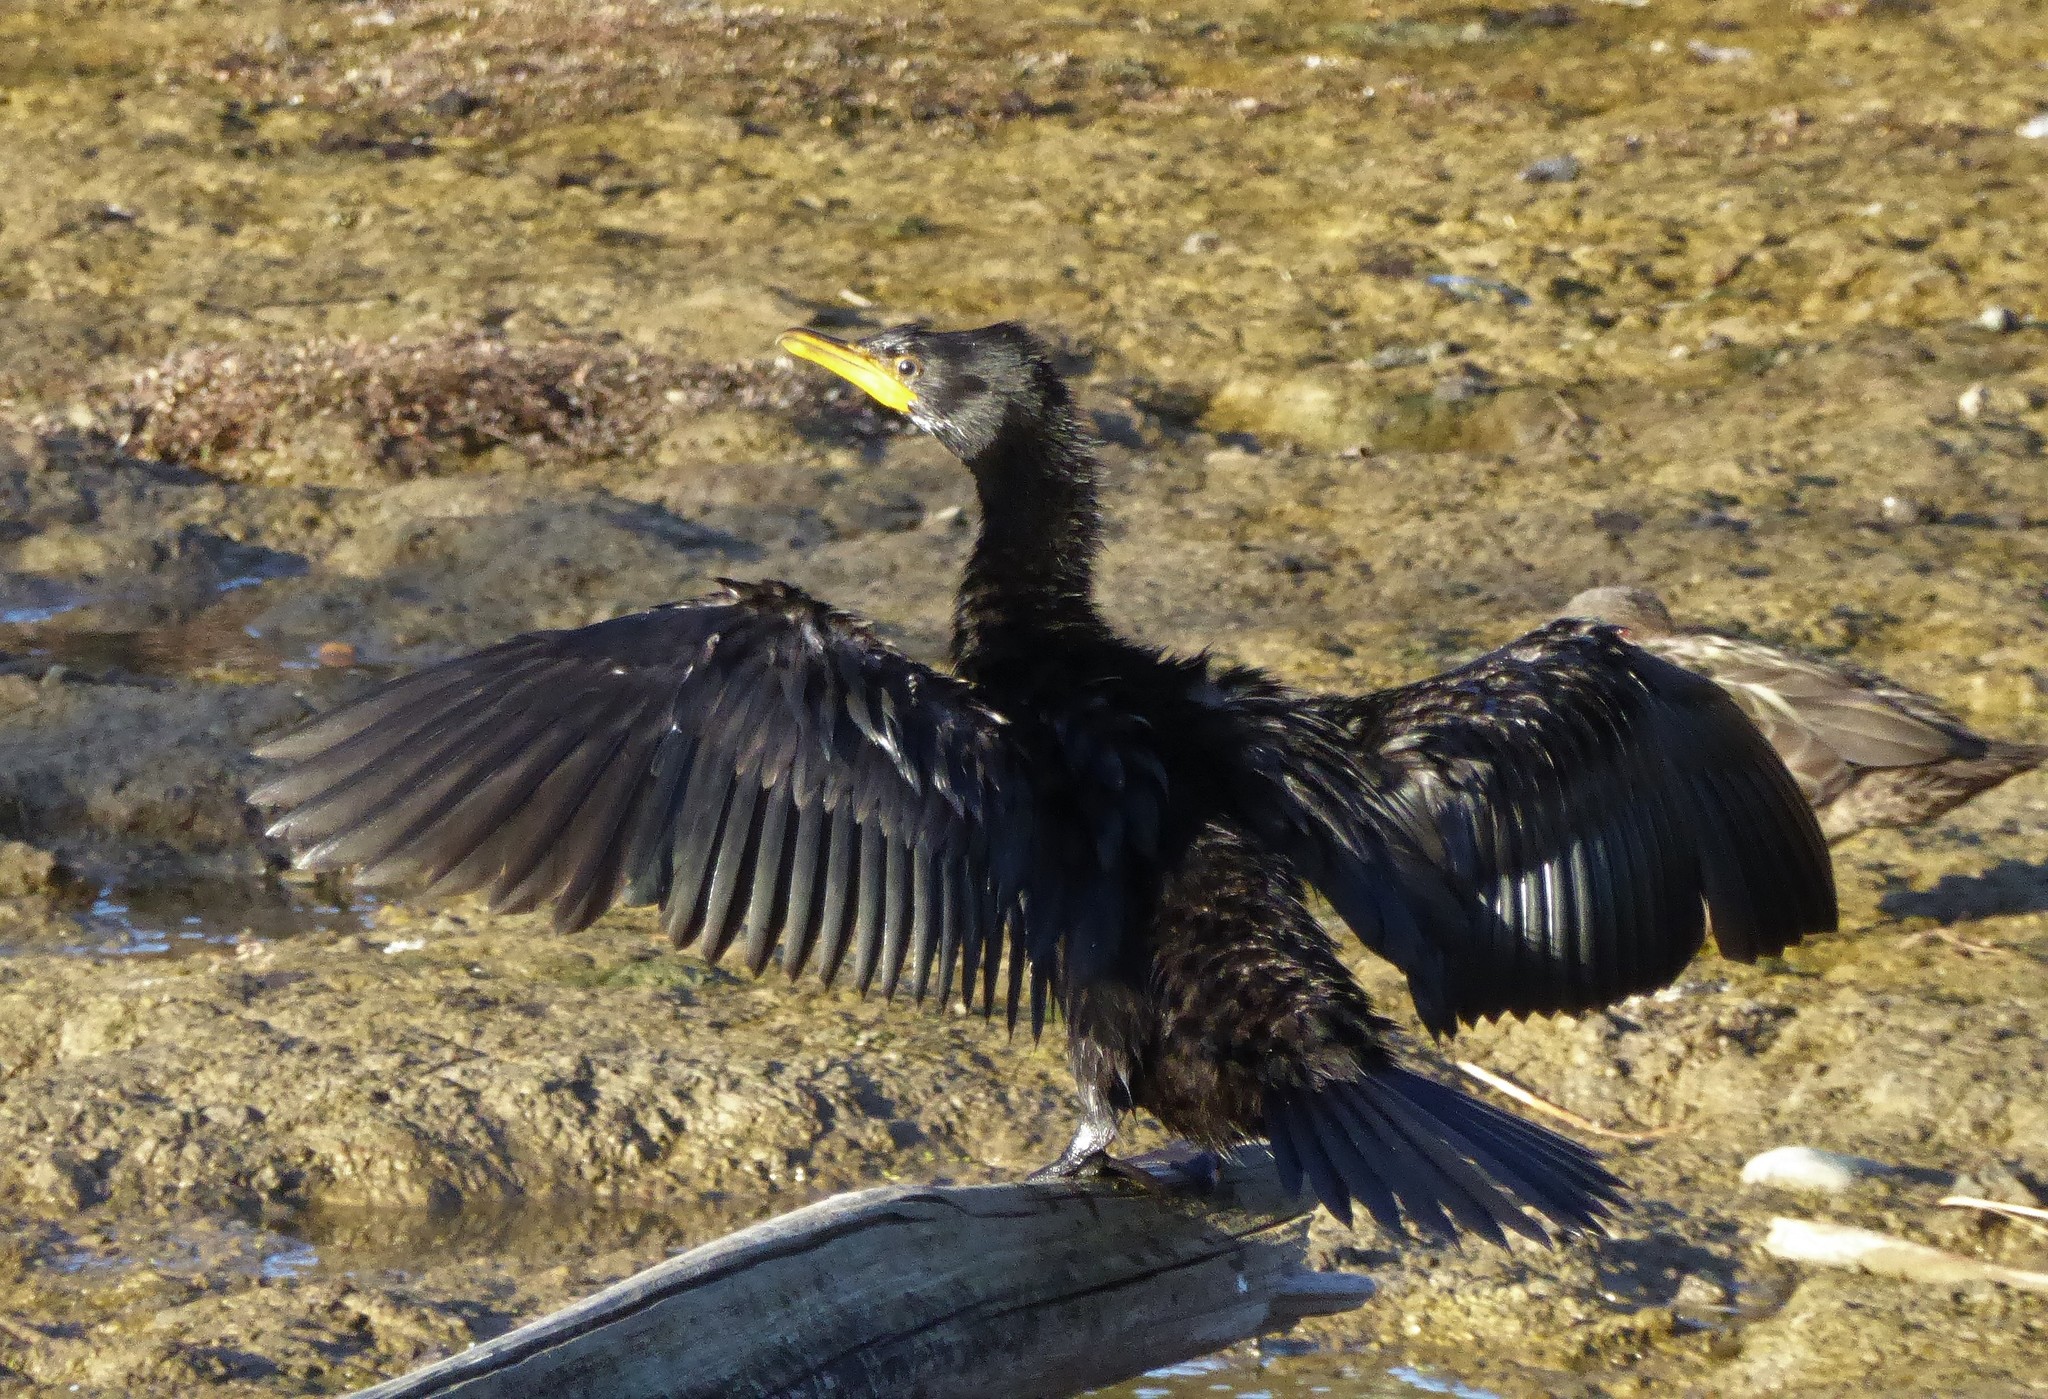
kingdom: Animalia
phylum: Chordata
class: Aves
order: Suliformes
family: Phalacrocoracidae
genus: Microcarbo
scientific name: Microcarbo melanoleucos
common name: Little pied cormorant
